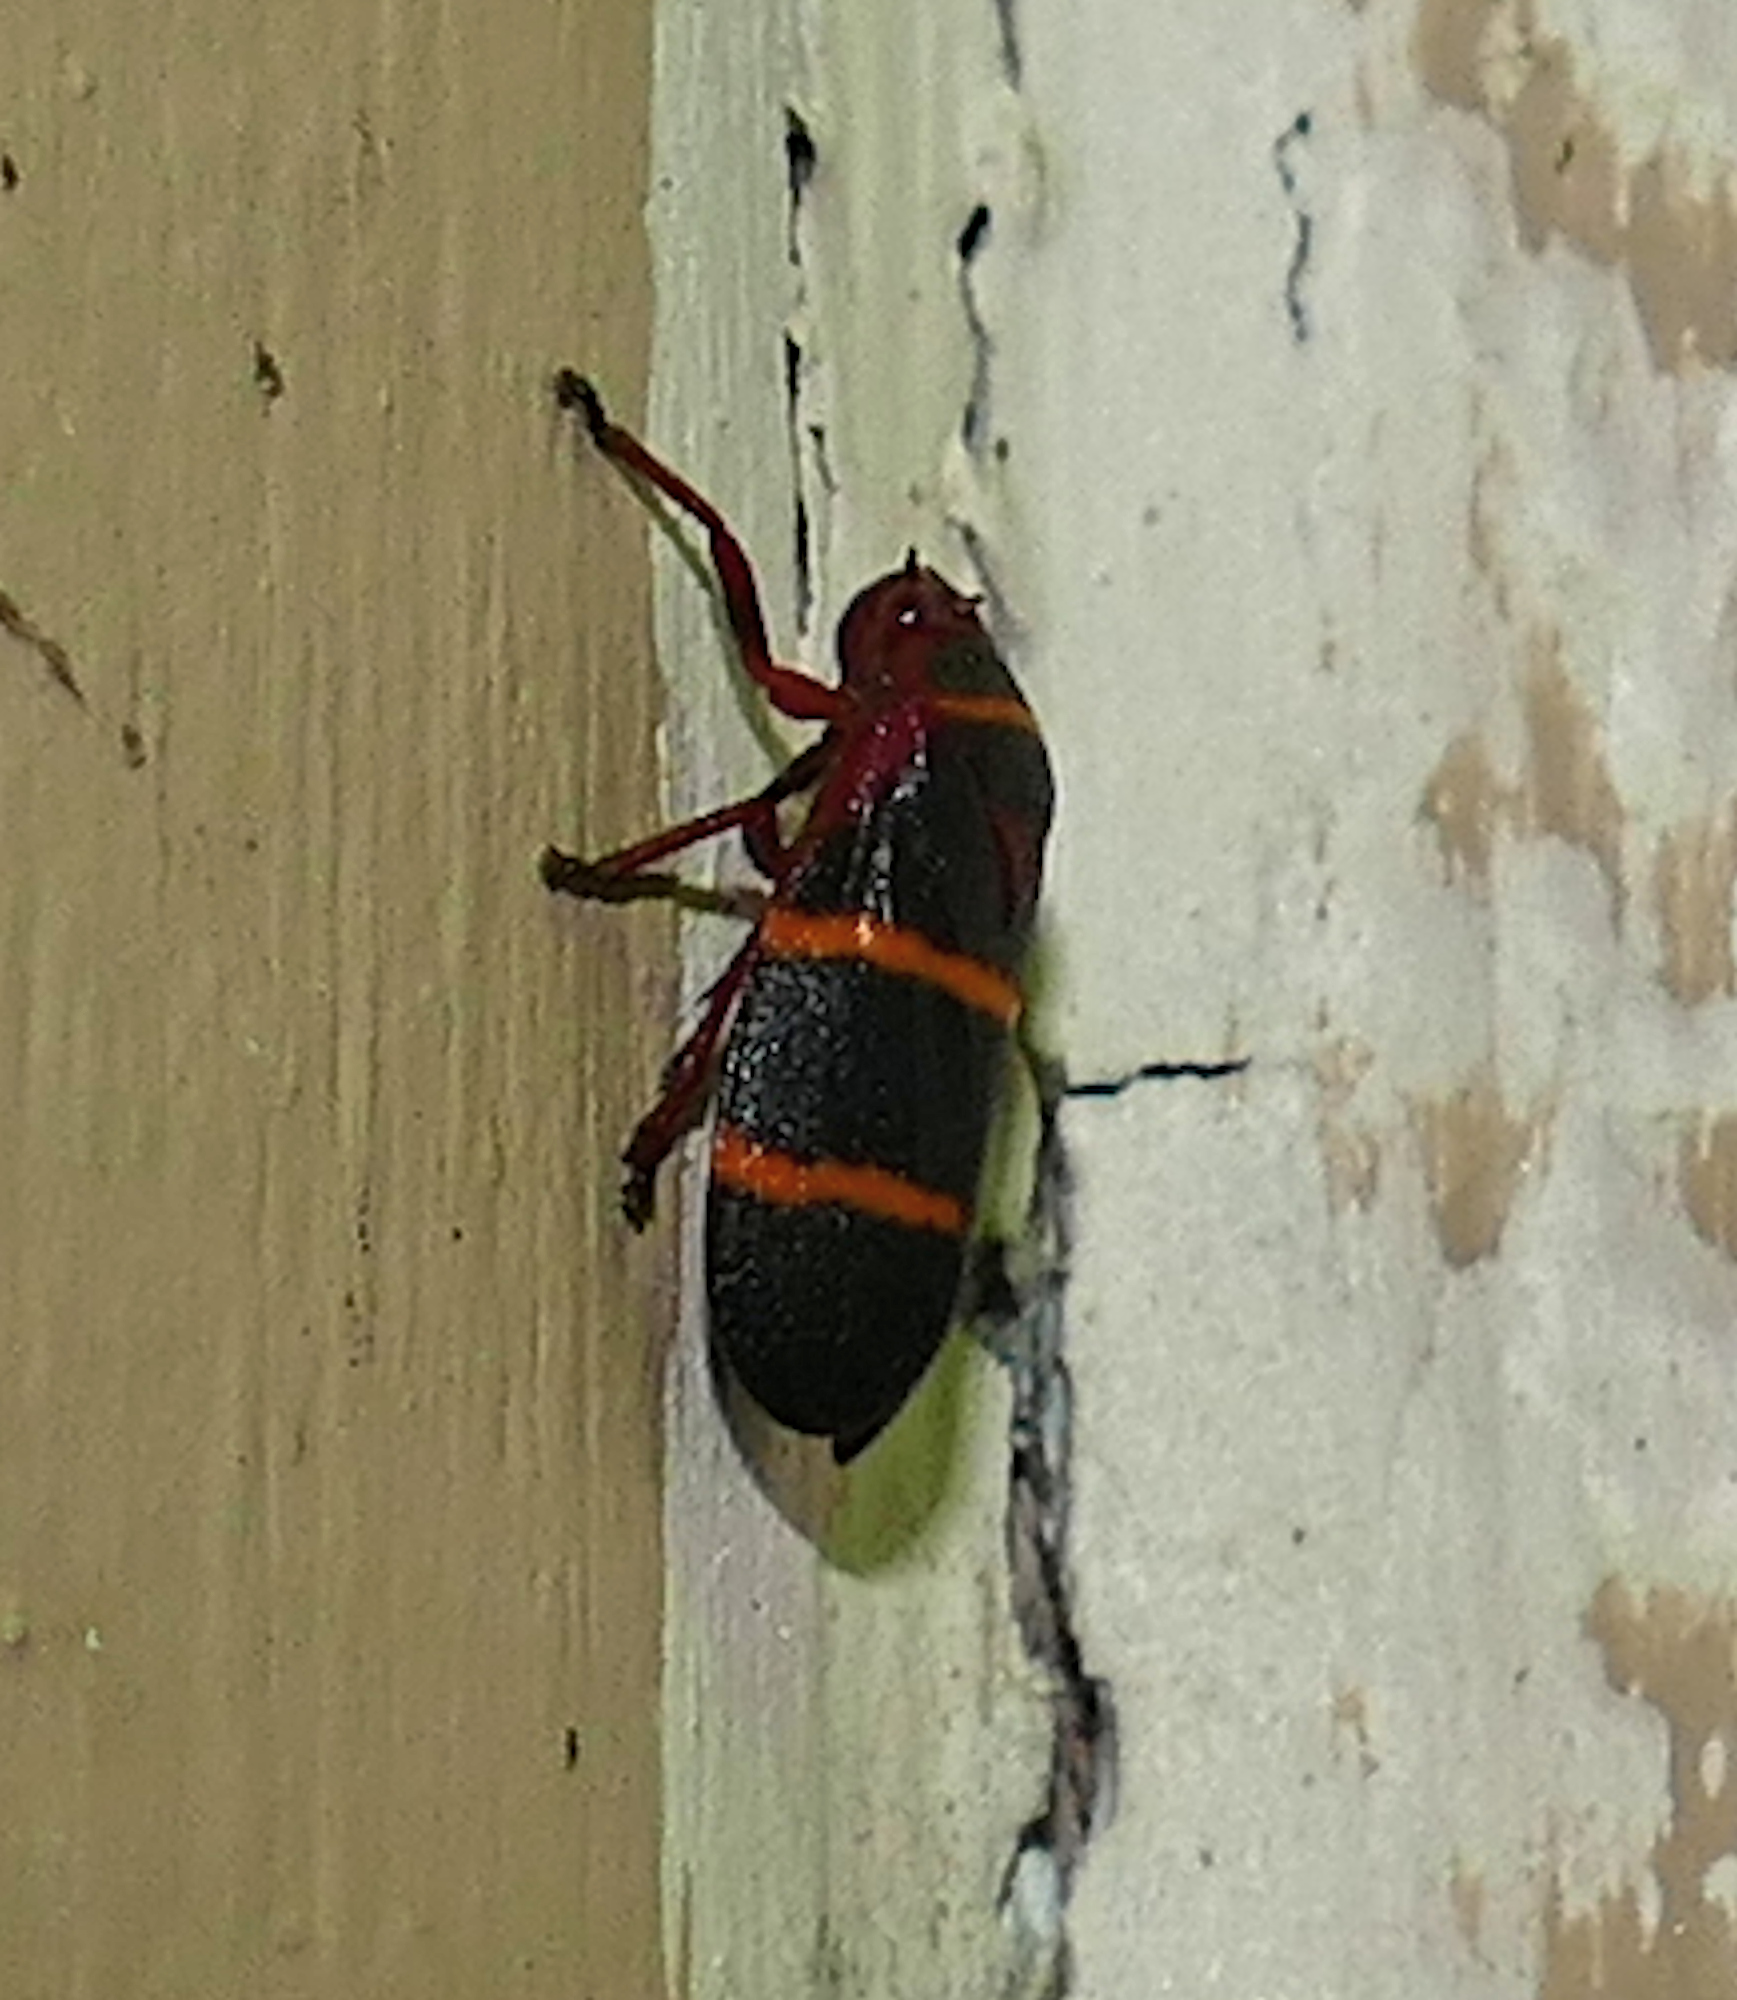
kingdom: Animalia
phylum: Arthropoda
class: Insecta
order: Hemiptera
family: Cercopidae
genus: Prosapia
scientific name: Prosapia bicincta
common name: Twolined spittlebug
